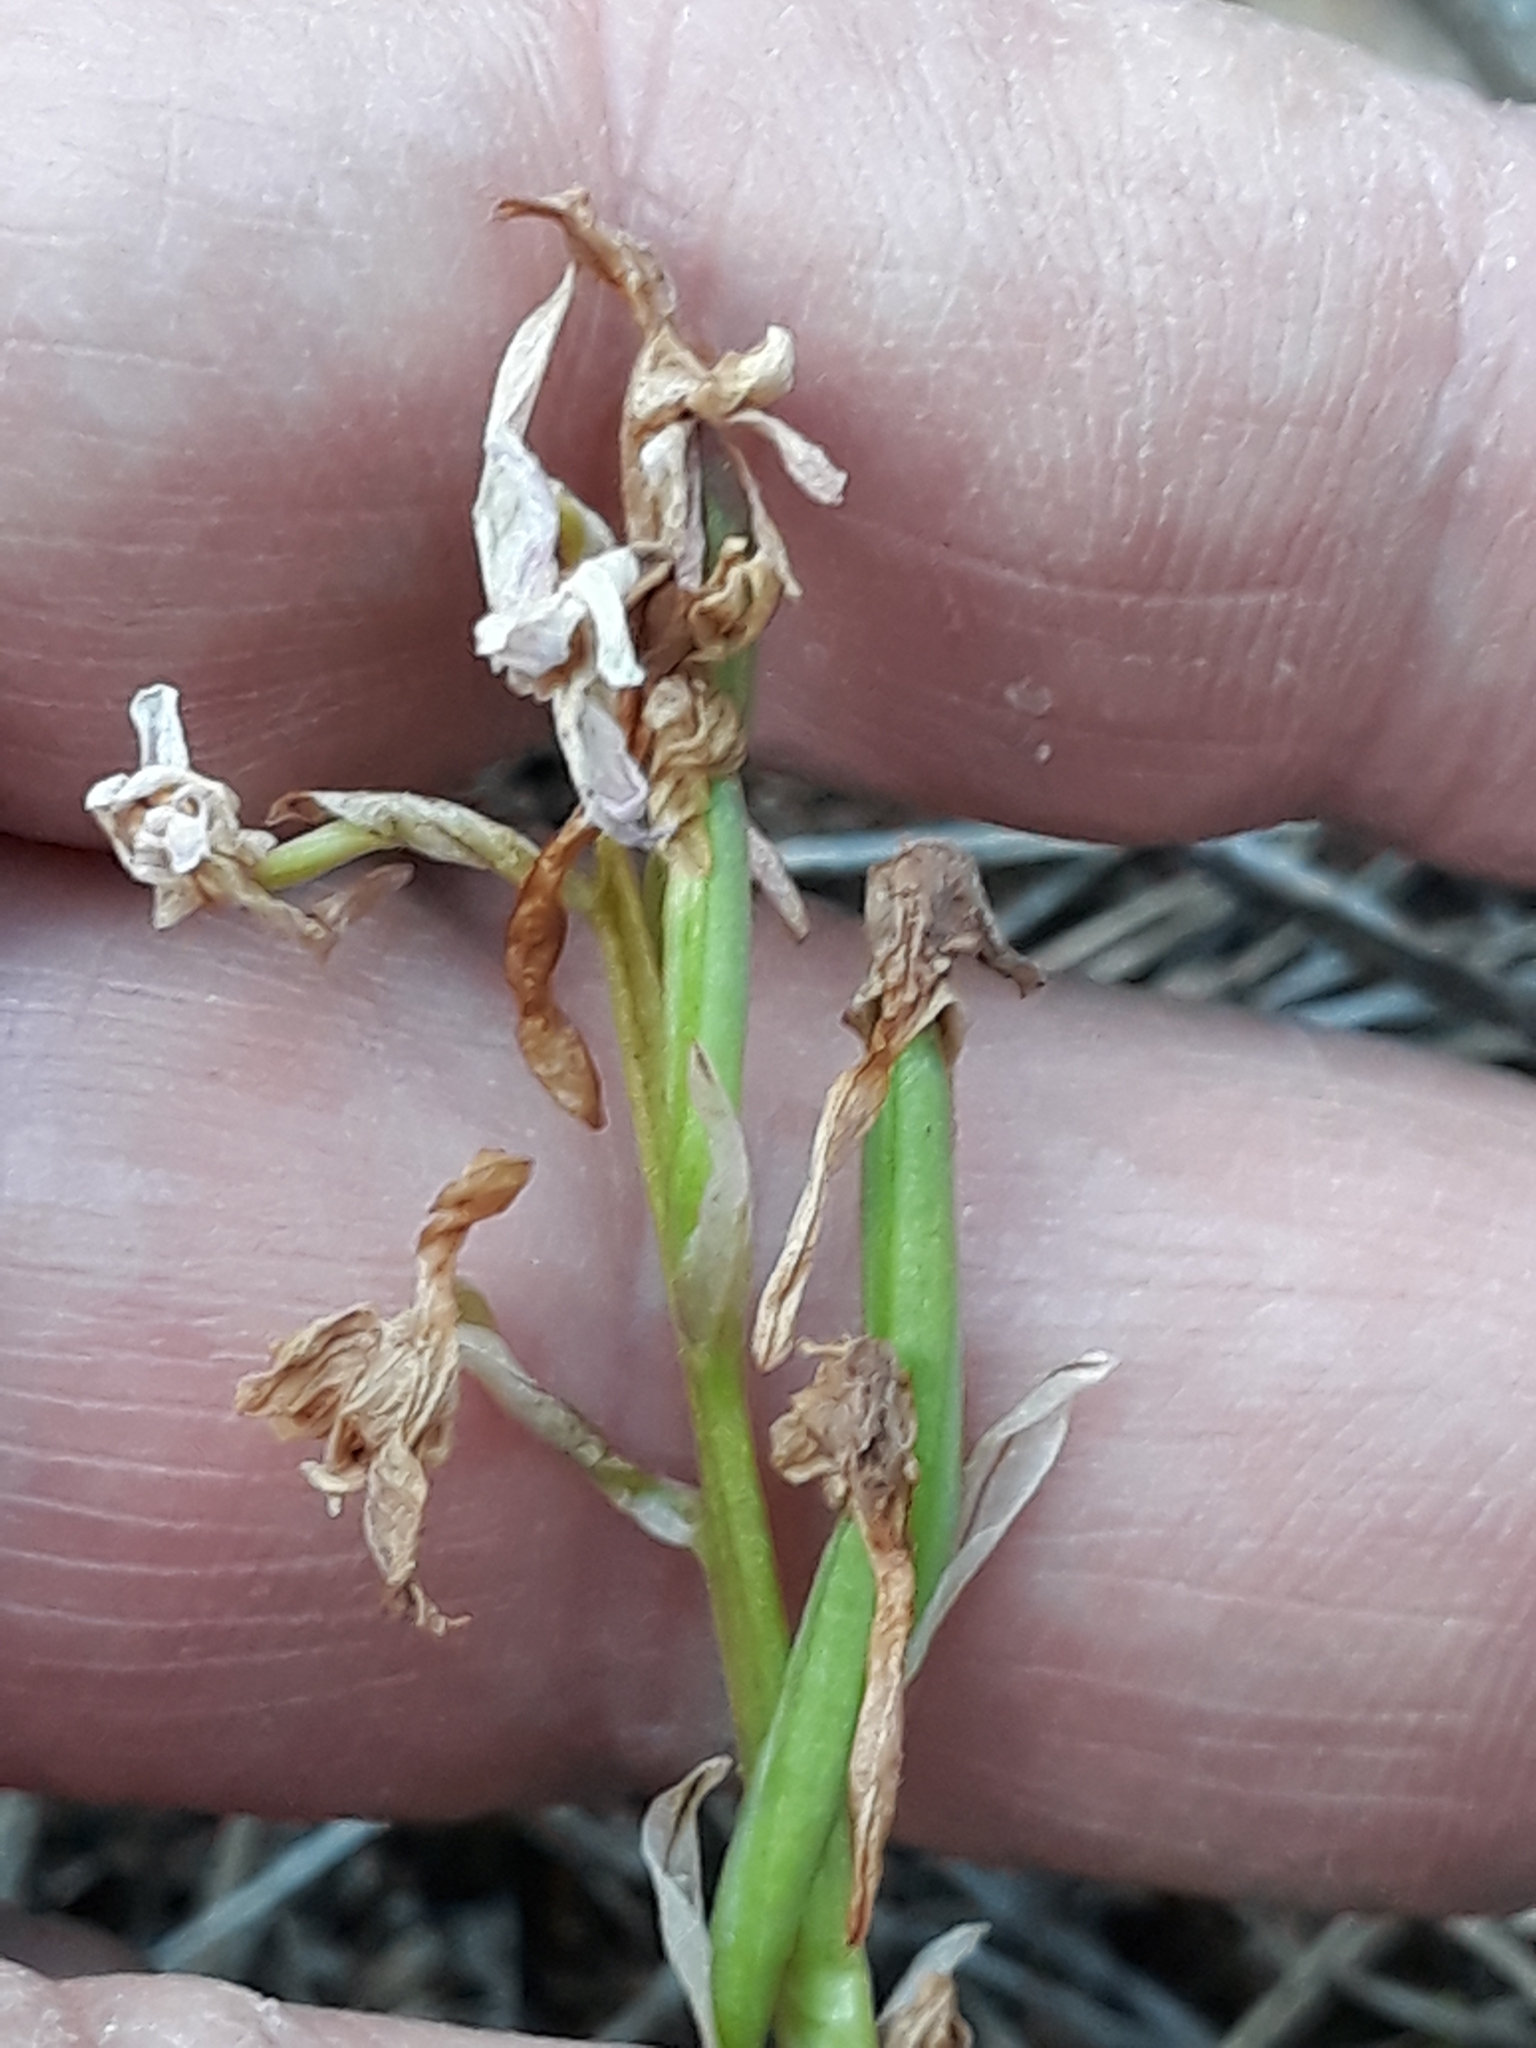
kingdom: Plantae
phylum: Tracheophyta
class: Liliopsida
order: Asparagales
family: Orchidaceae
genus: Orchis
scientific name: Orchis laeta
